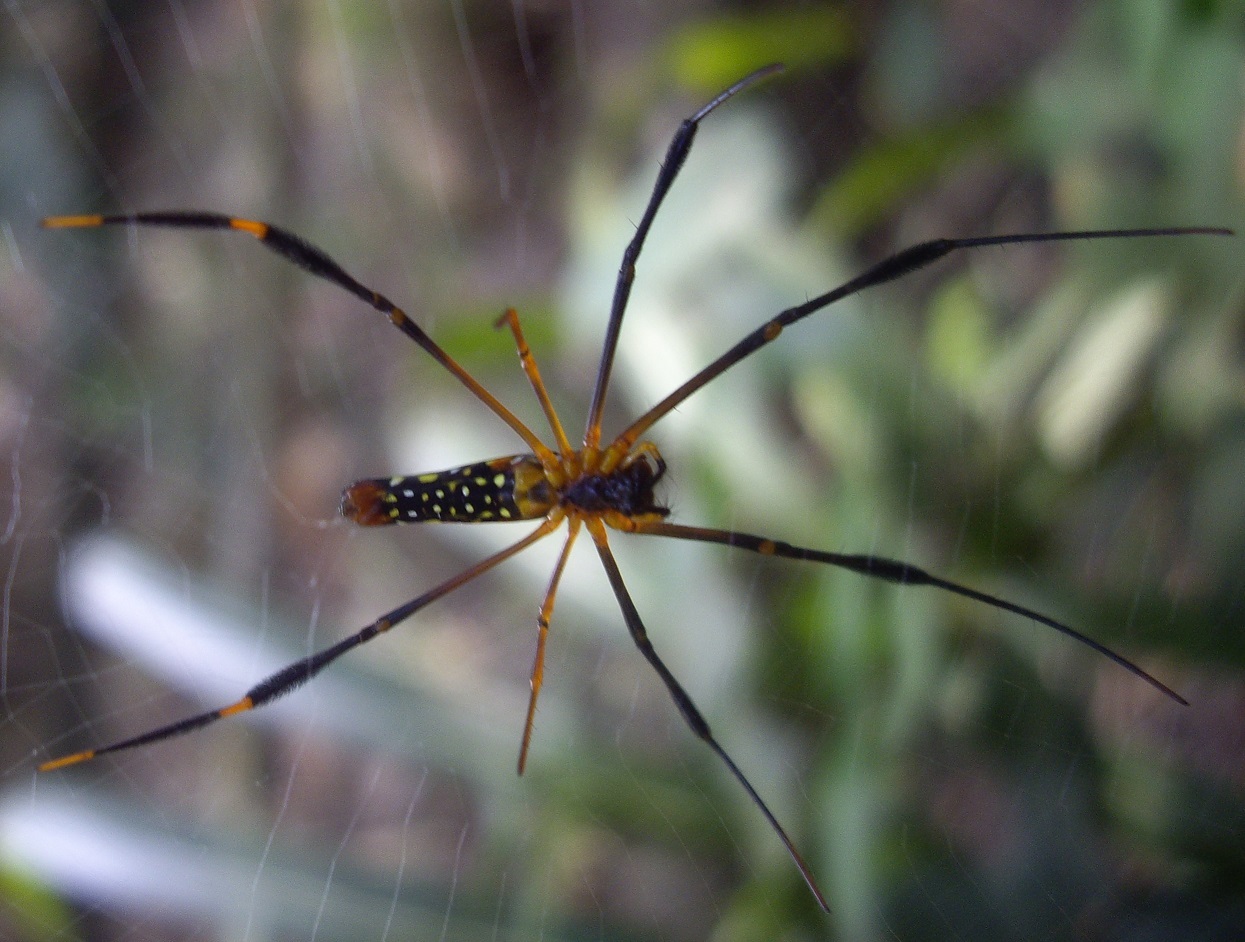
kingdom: Animalia
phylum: Arthropoda
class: Arachnida
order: Araneae
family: Araneidae
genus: Nephila
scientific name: Nephila pilipes
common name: Giant golden orb weaver
